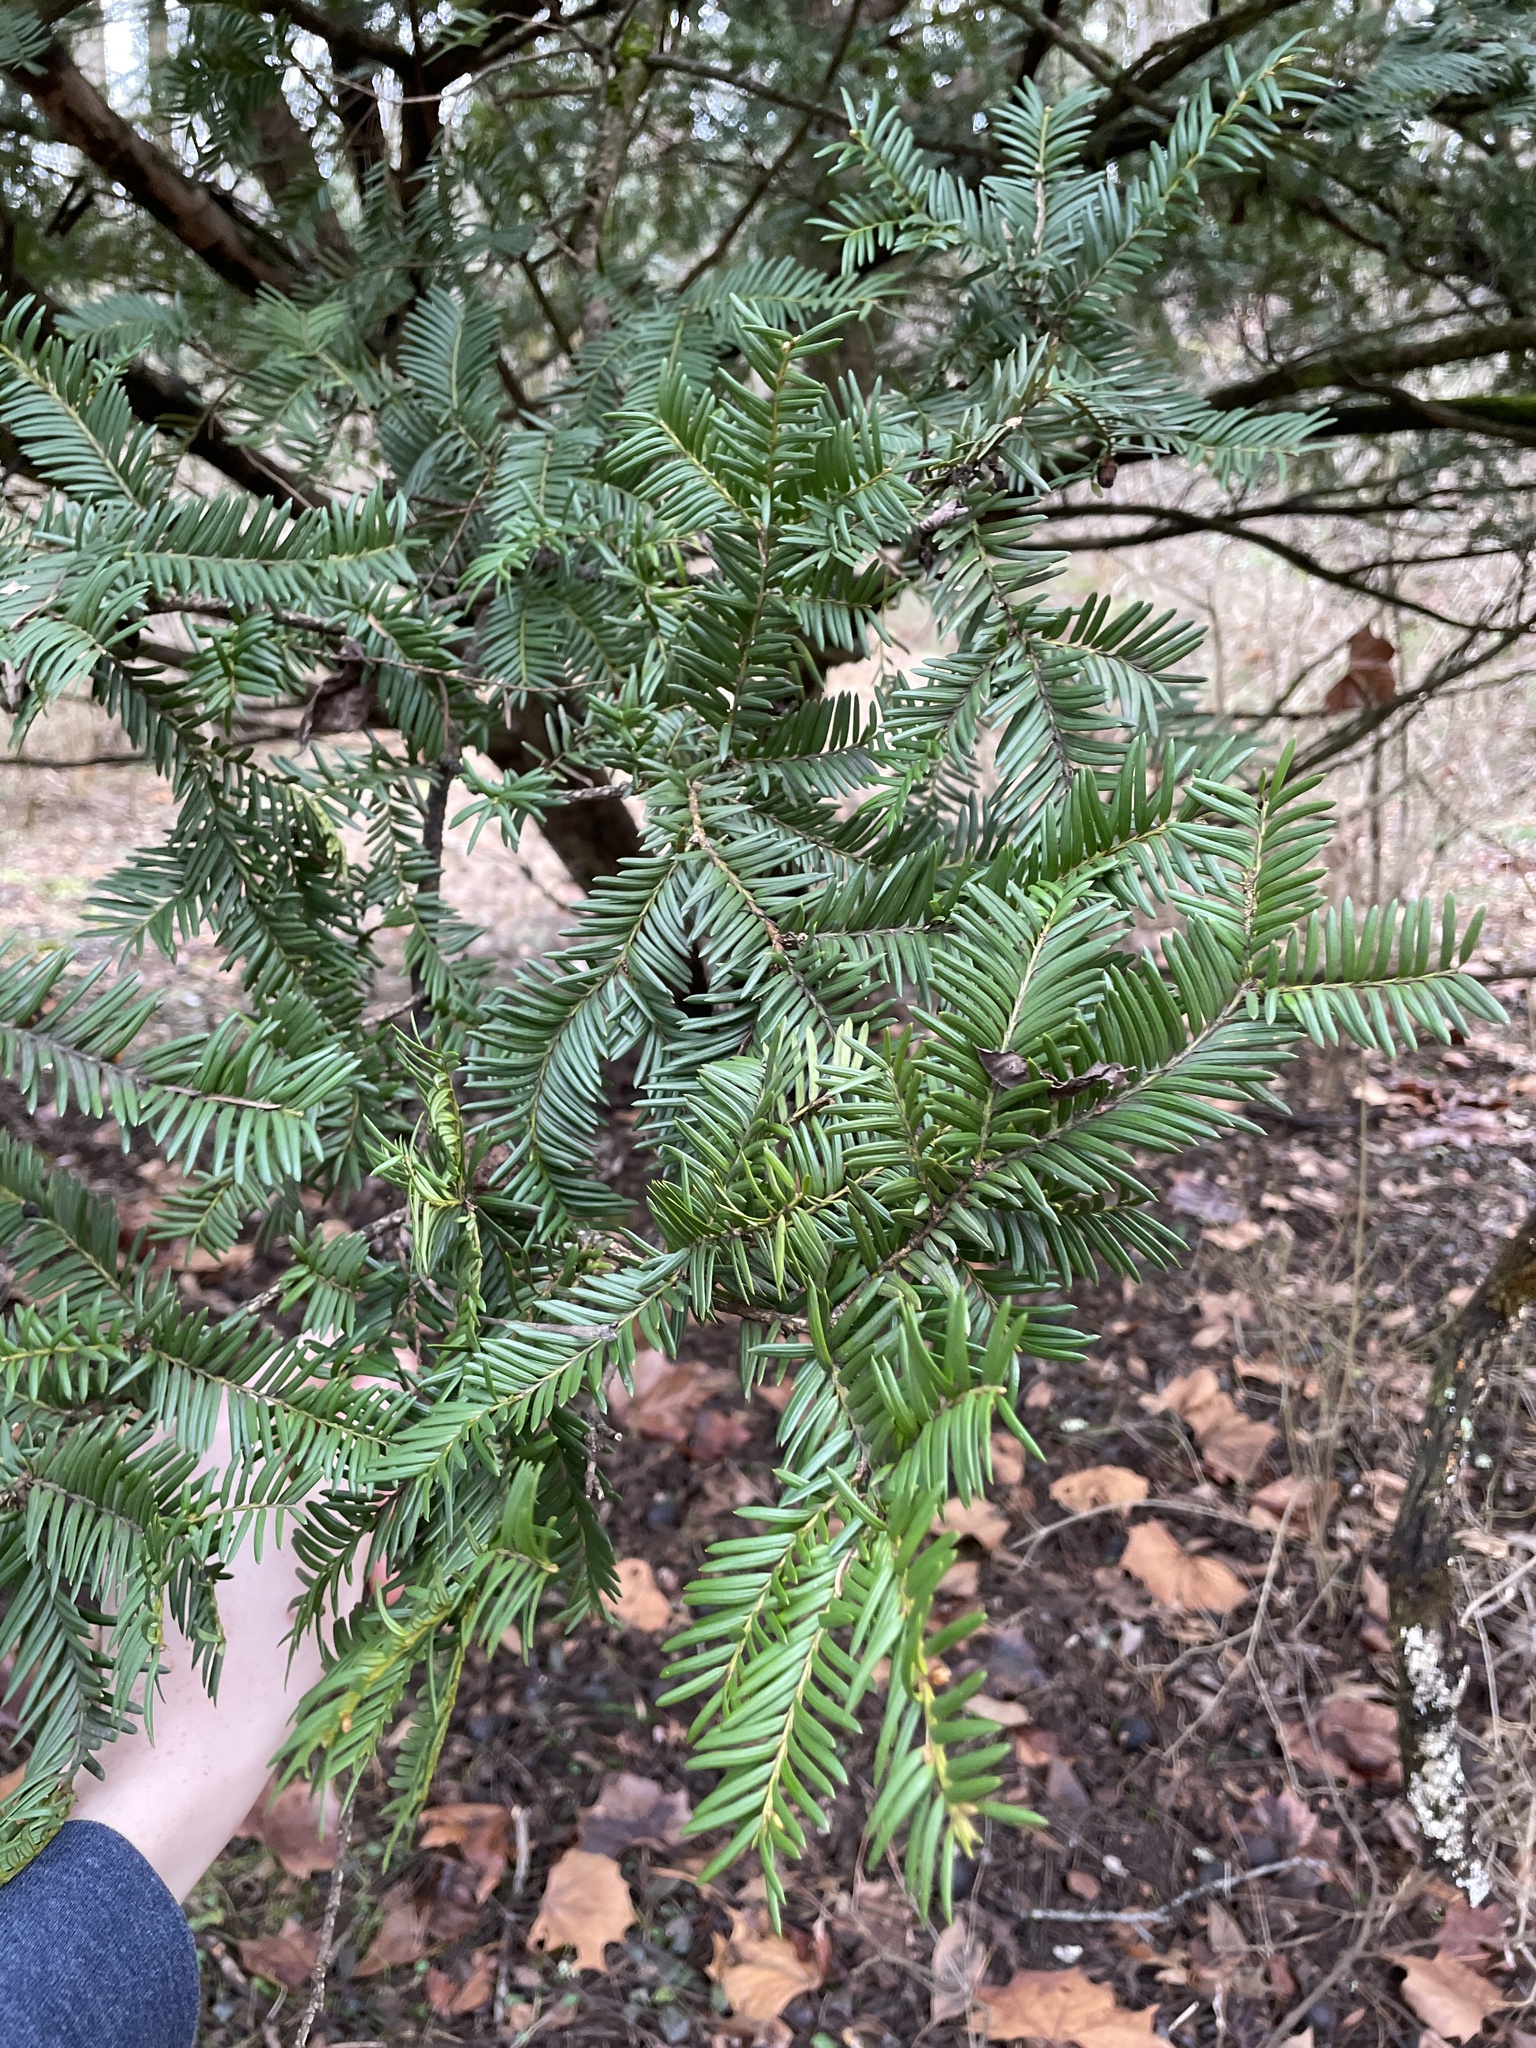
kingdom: Plantae
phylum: Tracheophyta
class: Pinopsida
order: Pinales
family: Taxaceae
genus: Taxus
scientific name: Taxus baccata
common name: Yew
